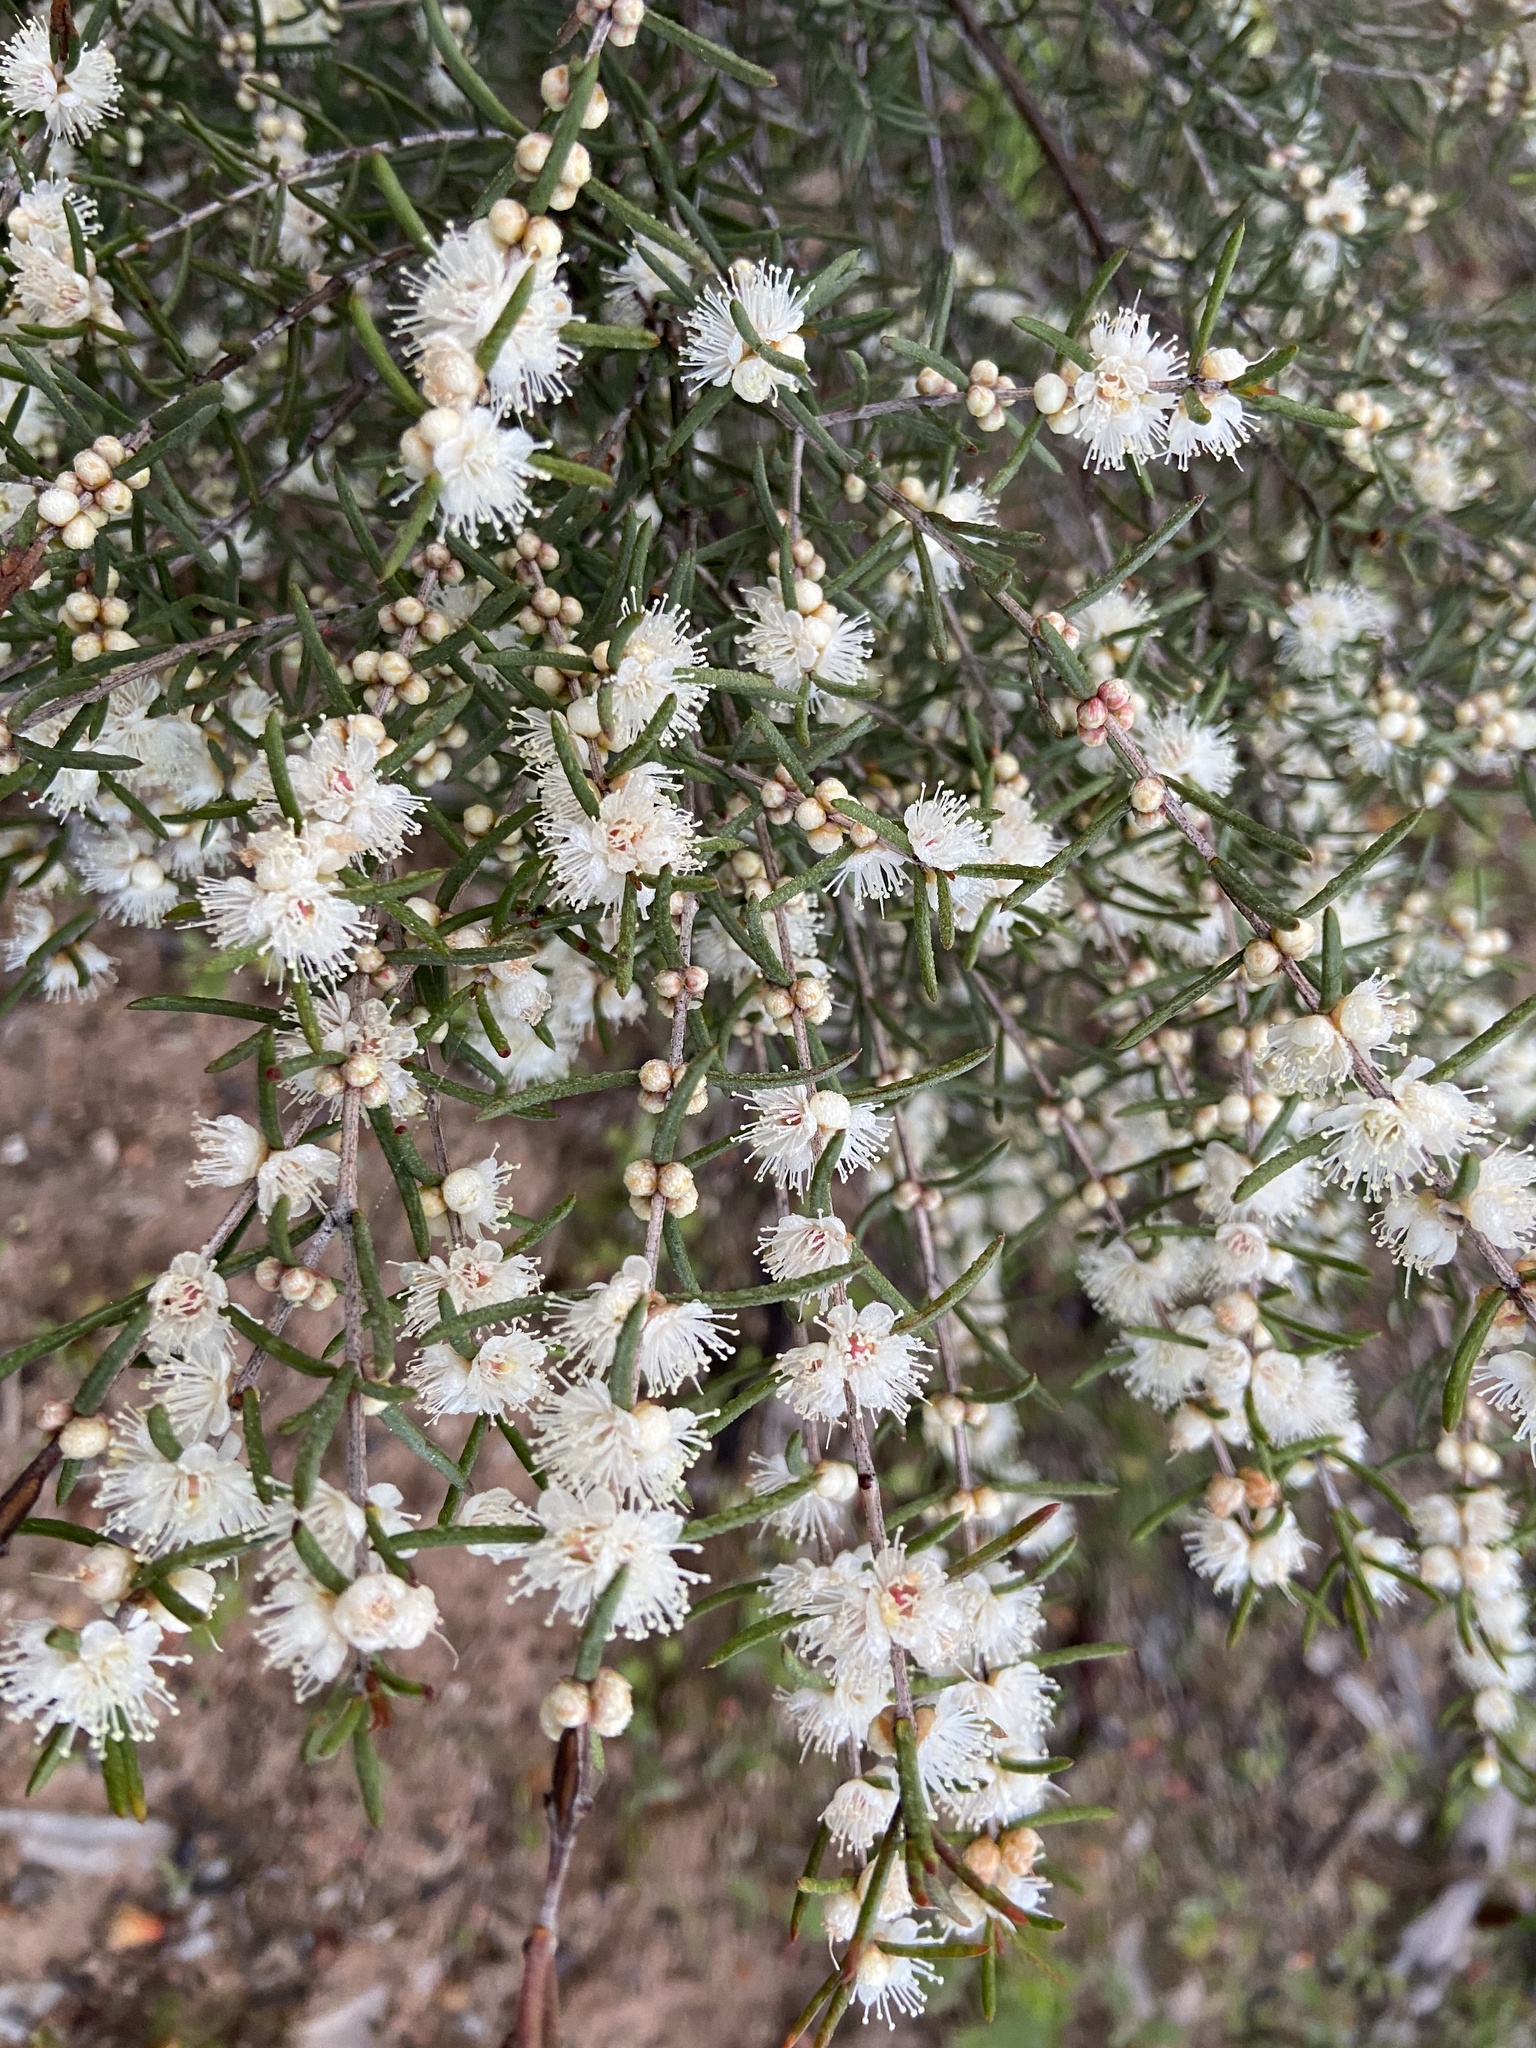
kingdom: Plantae
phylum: Tracheophyta
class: Magnoliopsida
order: Myrtales
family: Myrtaceae
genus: Hypocalymma
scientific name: Hypocalymma angustifolium
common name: White myrtle
